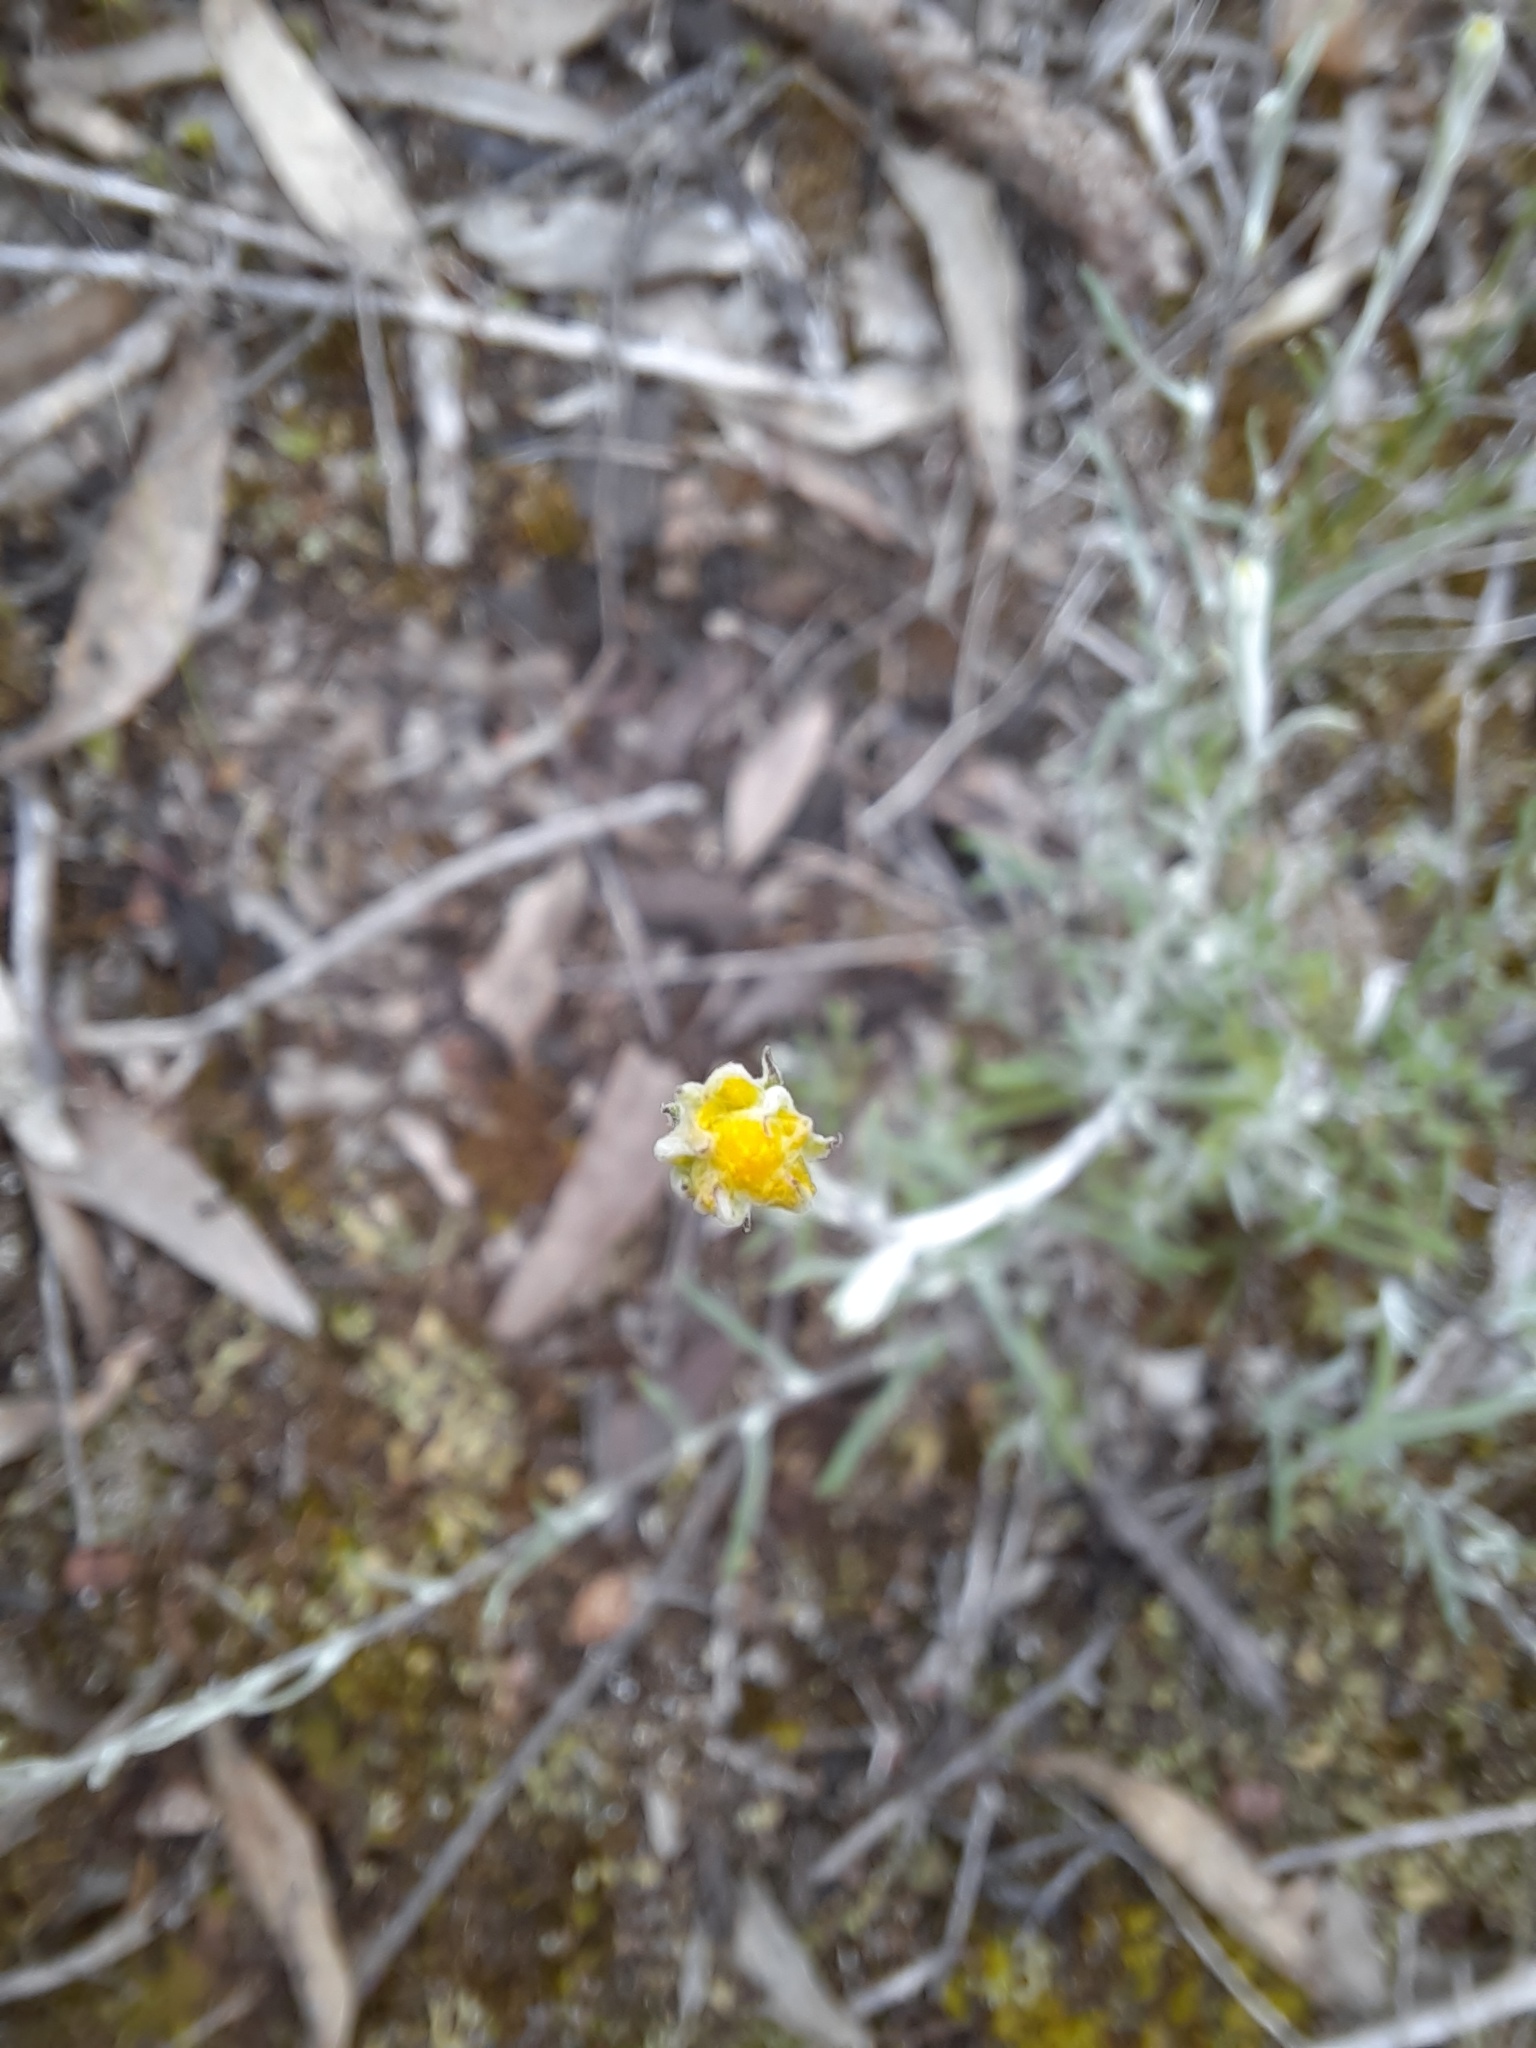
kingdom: Plantae
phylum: Tracheophyta
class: Magnoliopsida
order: Asterales
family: Asteraceae
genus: Chrysocephalum
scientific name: Chrysocephalum semipapposum
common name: Clustered everlasting
